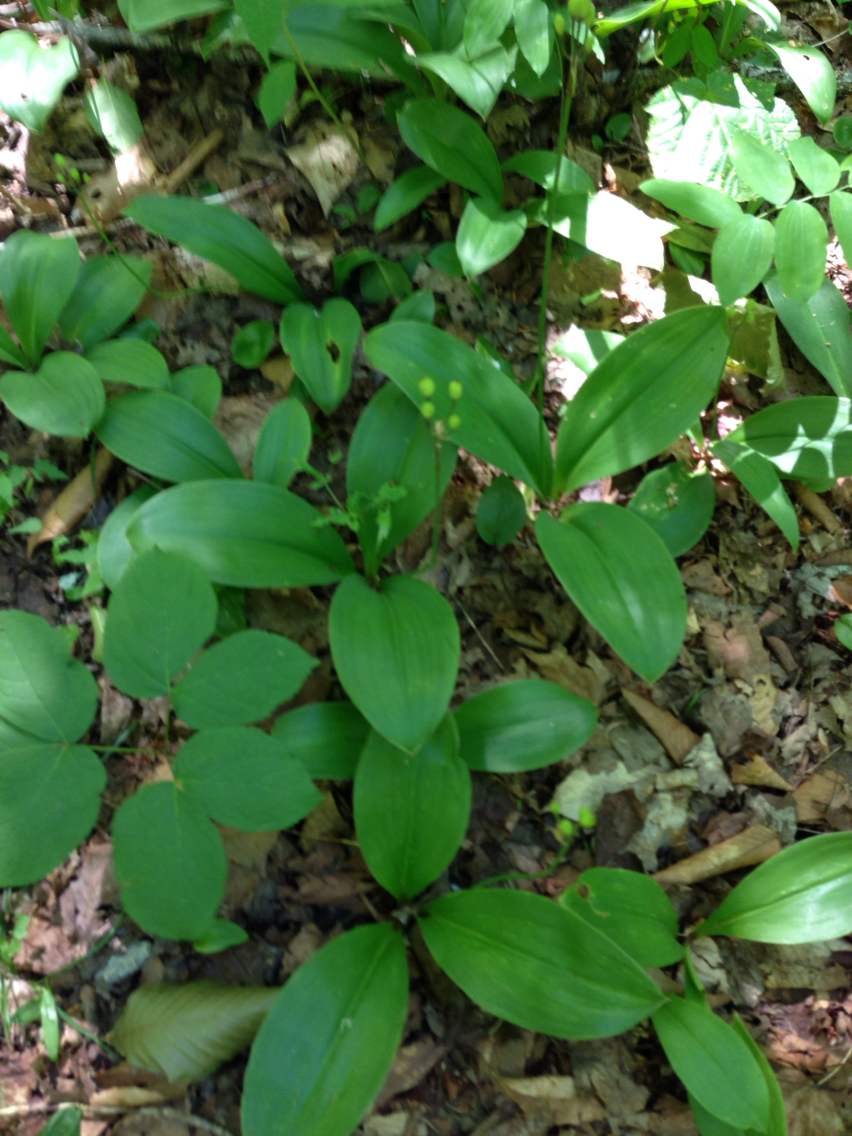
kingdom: Plantae
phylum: Tracheophyta
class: Liliopsida
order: Liliales
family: Liliaceae
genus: Clintonia
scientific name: Clintonia borealis
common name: Yellow clintonia
